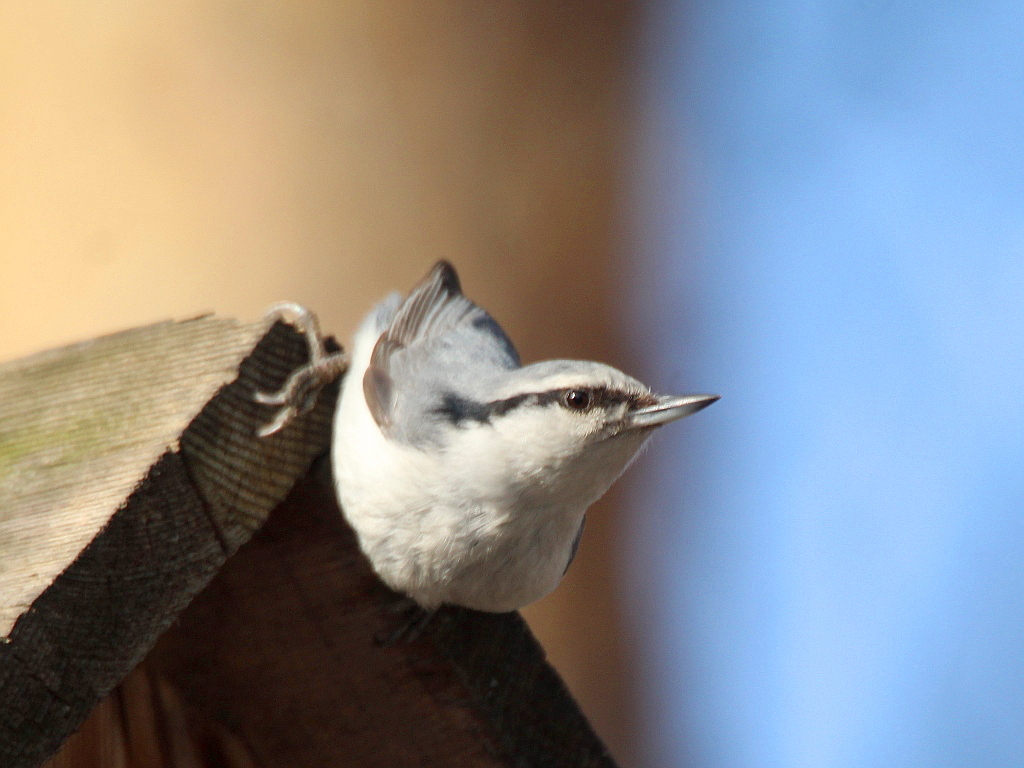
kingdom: Animalia
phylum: Chordata
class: Aves
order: Passeriformes
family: Sittidae
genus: Sitta
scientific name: Sitta europaea
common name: Eurasian nuthatch
